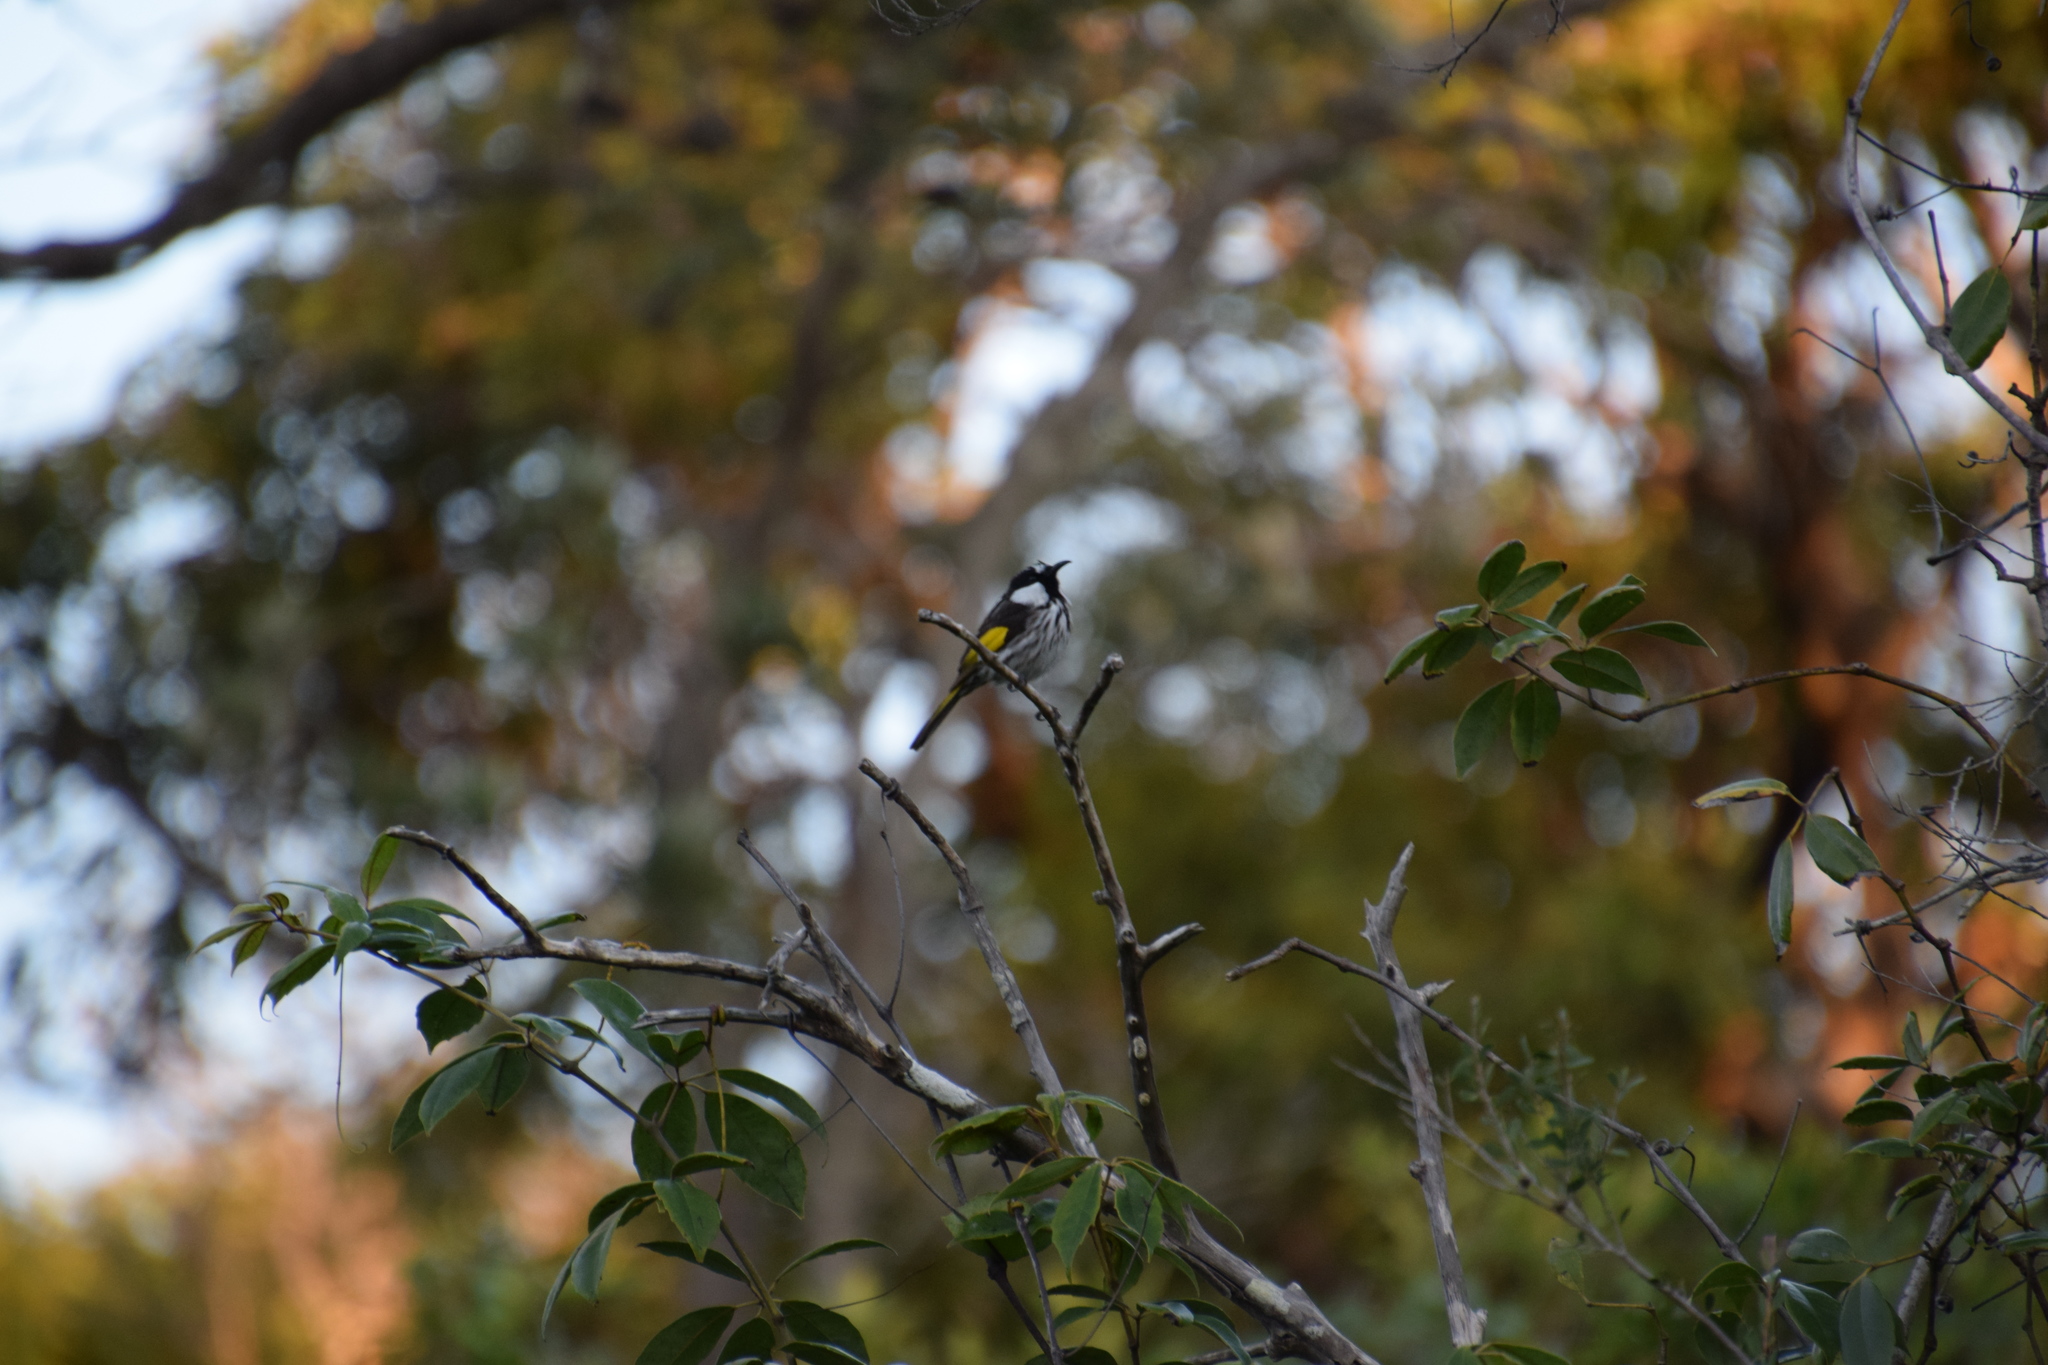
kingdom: Animalia
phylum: Chordata
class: Aves
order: Passeriformes
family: Meliphagidae
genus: Phylidonyris
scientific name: Phylidonyris niger
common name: White-cheeked honeyeater
